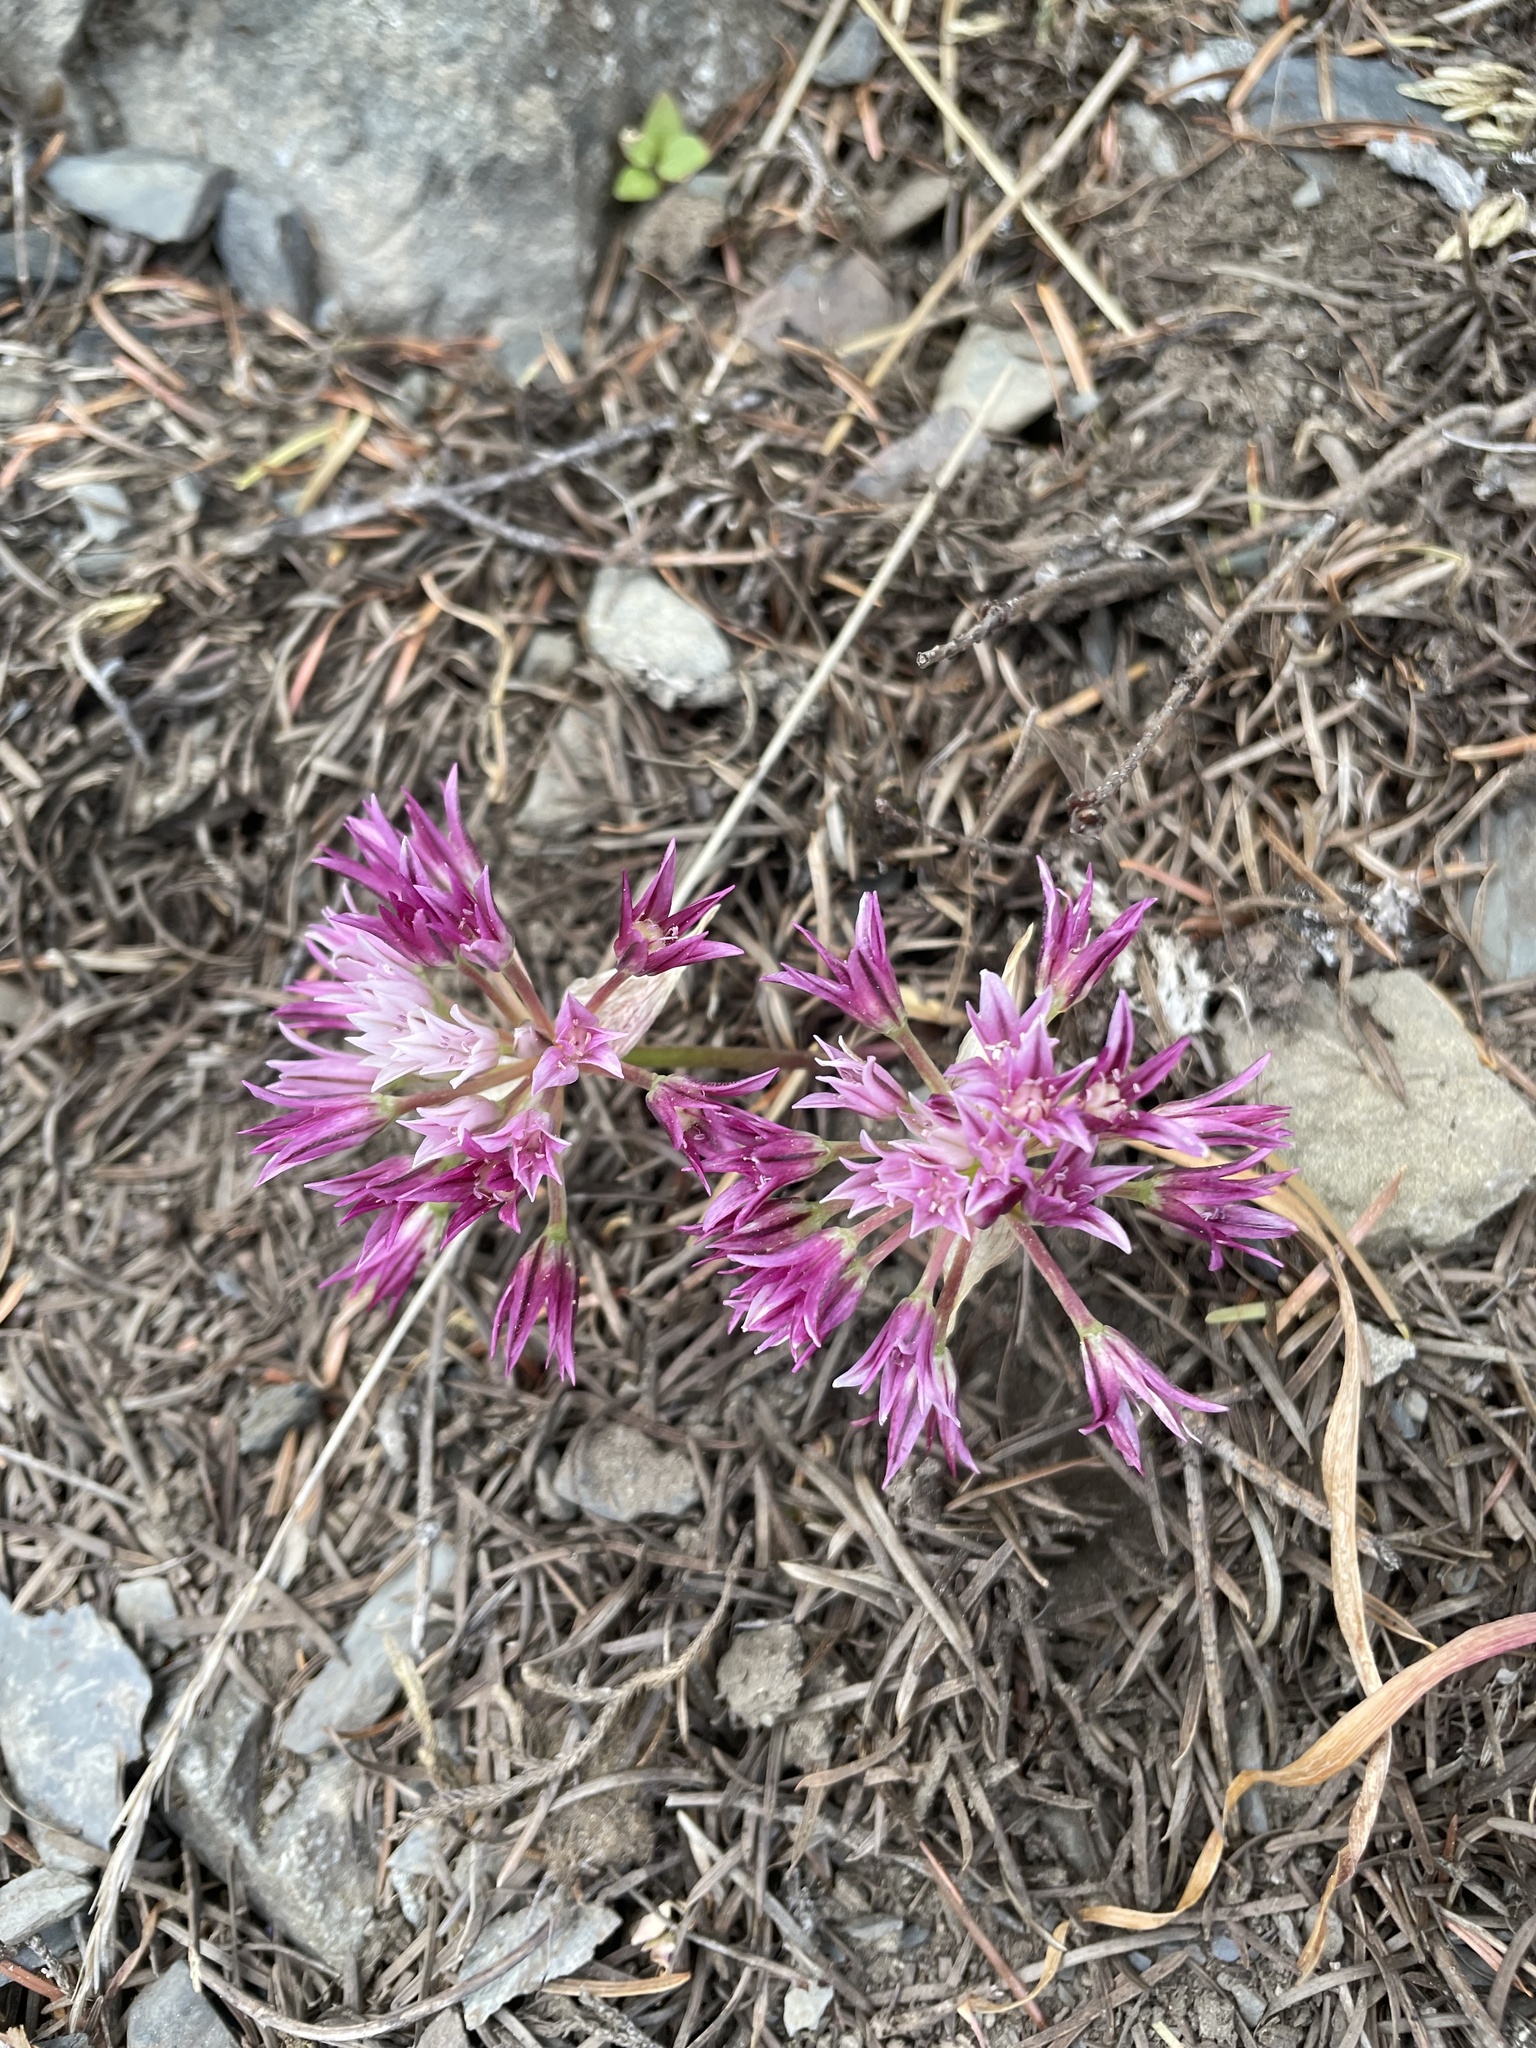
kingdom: Plantae
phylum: Tracheophyta
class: Liliopsida
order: Asparagales
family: Amaryllidaceae
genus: Allium
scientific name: Allium crenulatum
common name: Olympic onion
